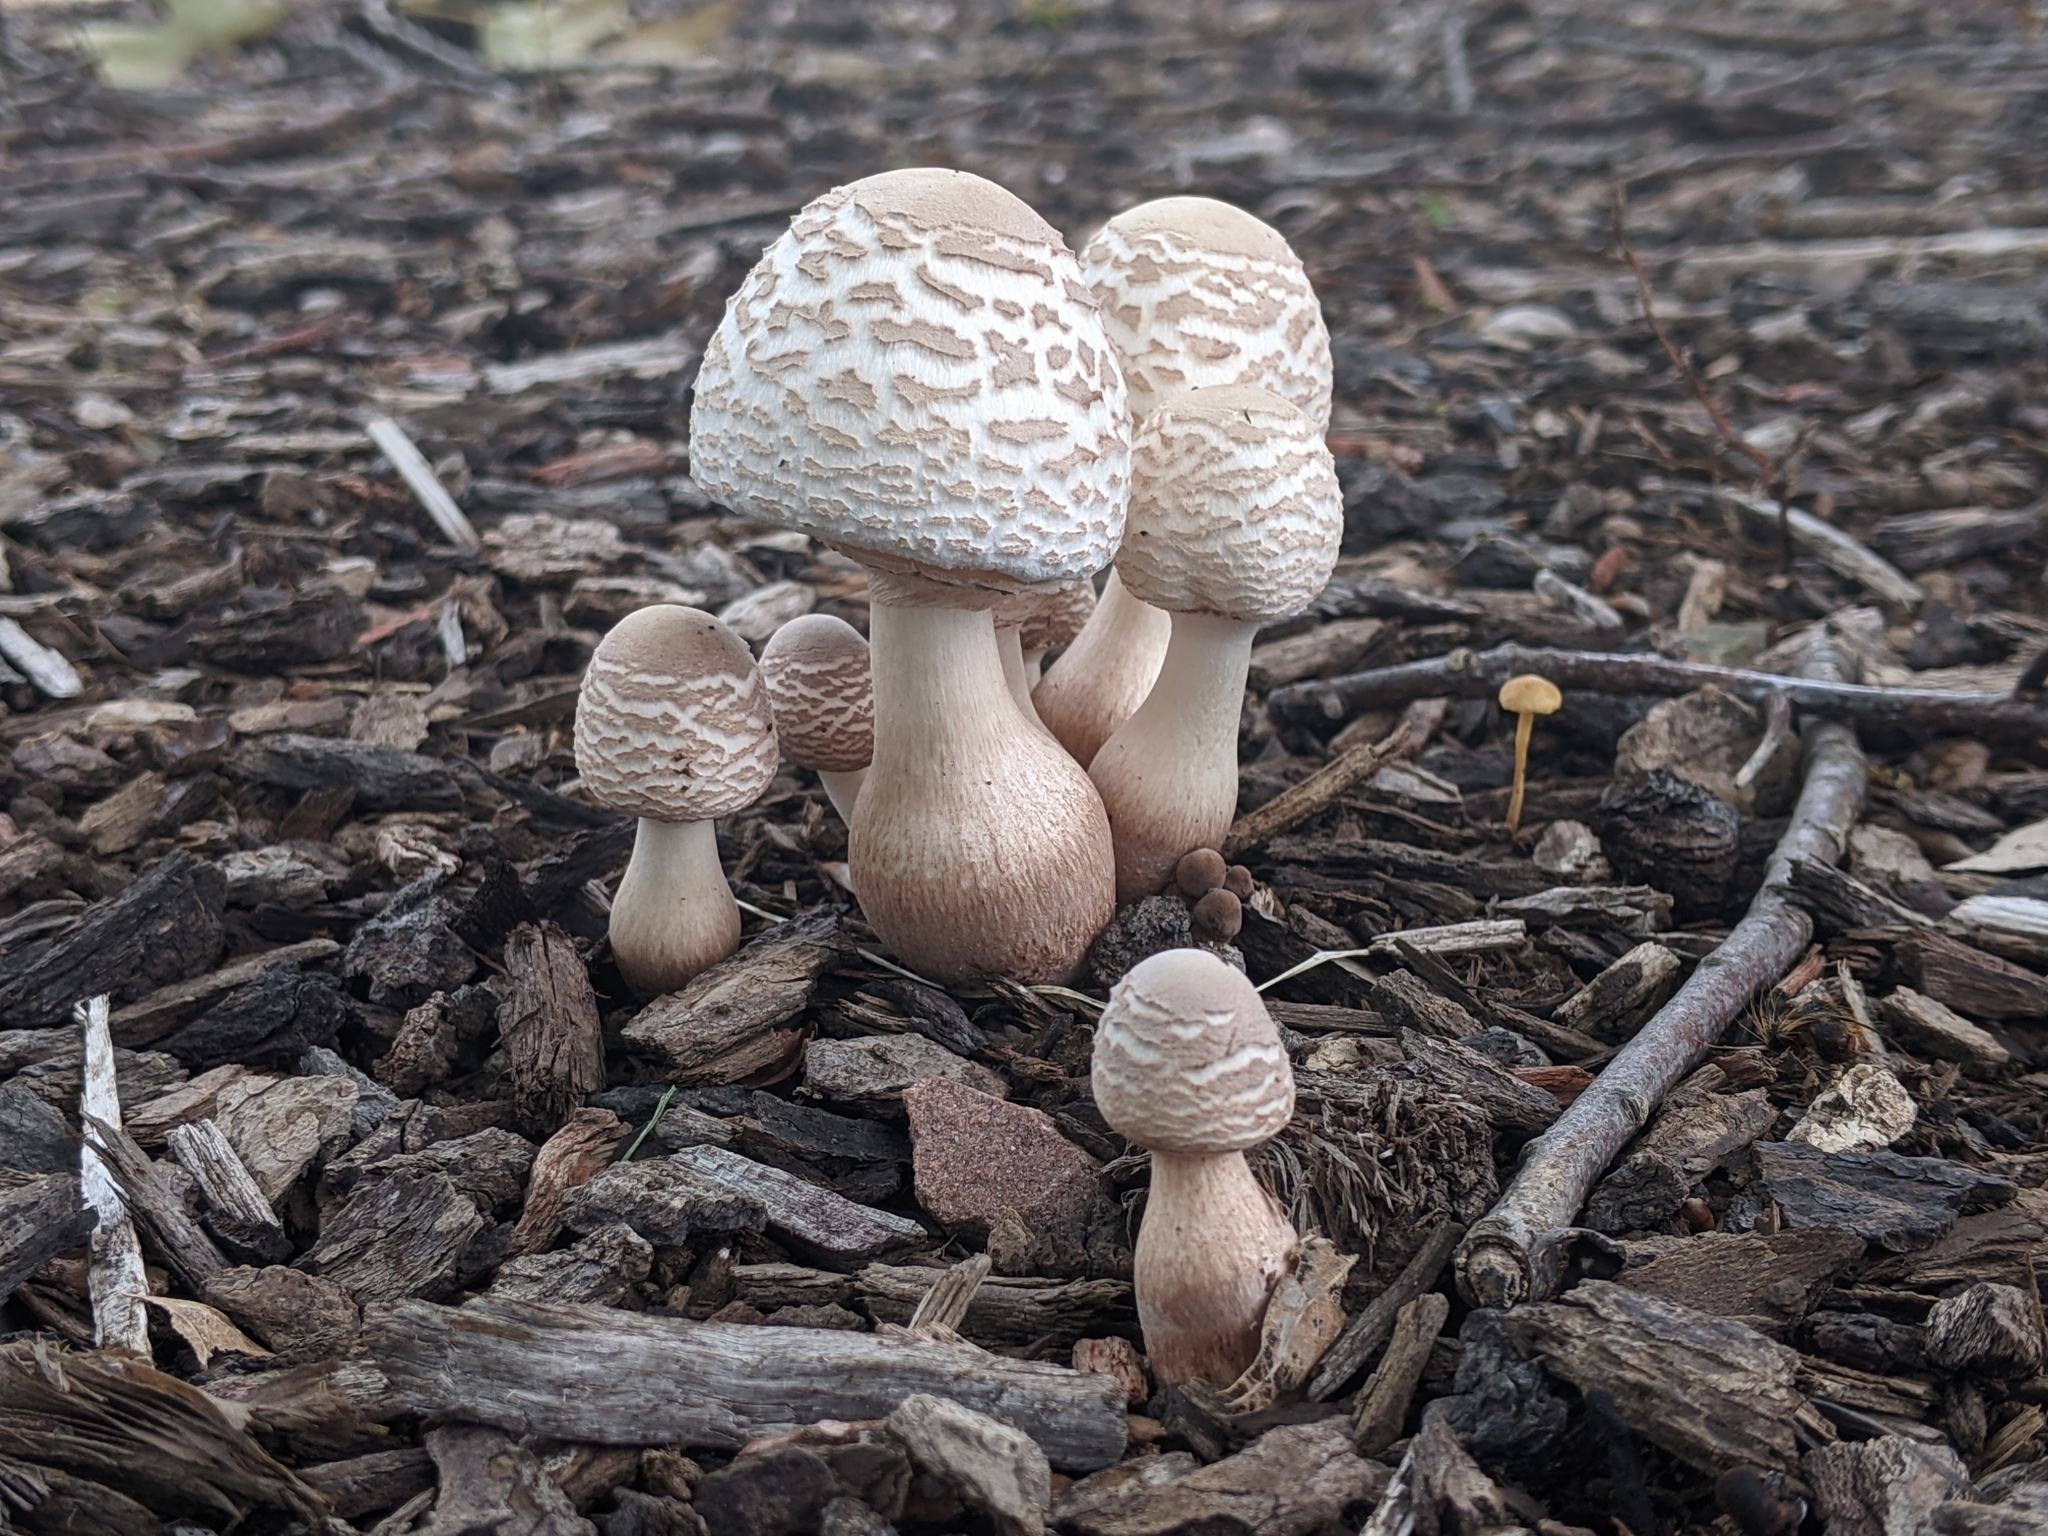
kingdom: Fungi
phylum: Basidiomycota
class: Agaricomycetes
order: Agaricales
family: Agaricaceae
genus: Leucoagaricus
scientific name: Leucoagaricus americanus
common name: Reddening lepiota
